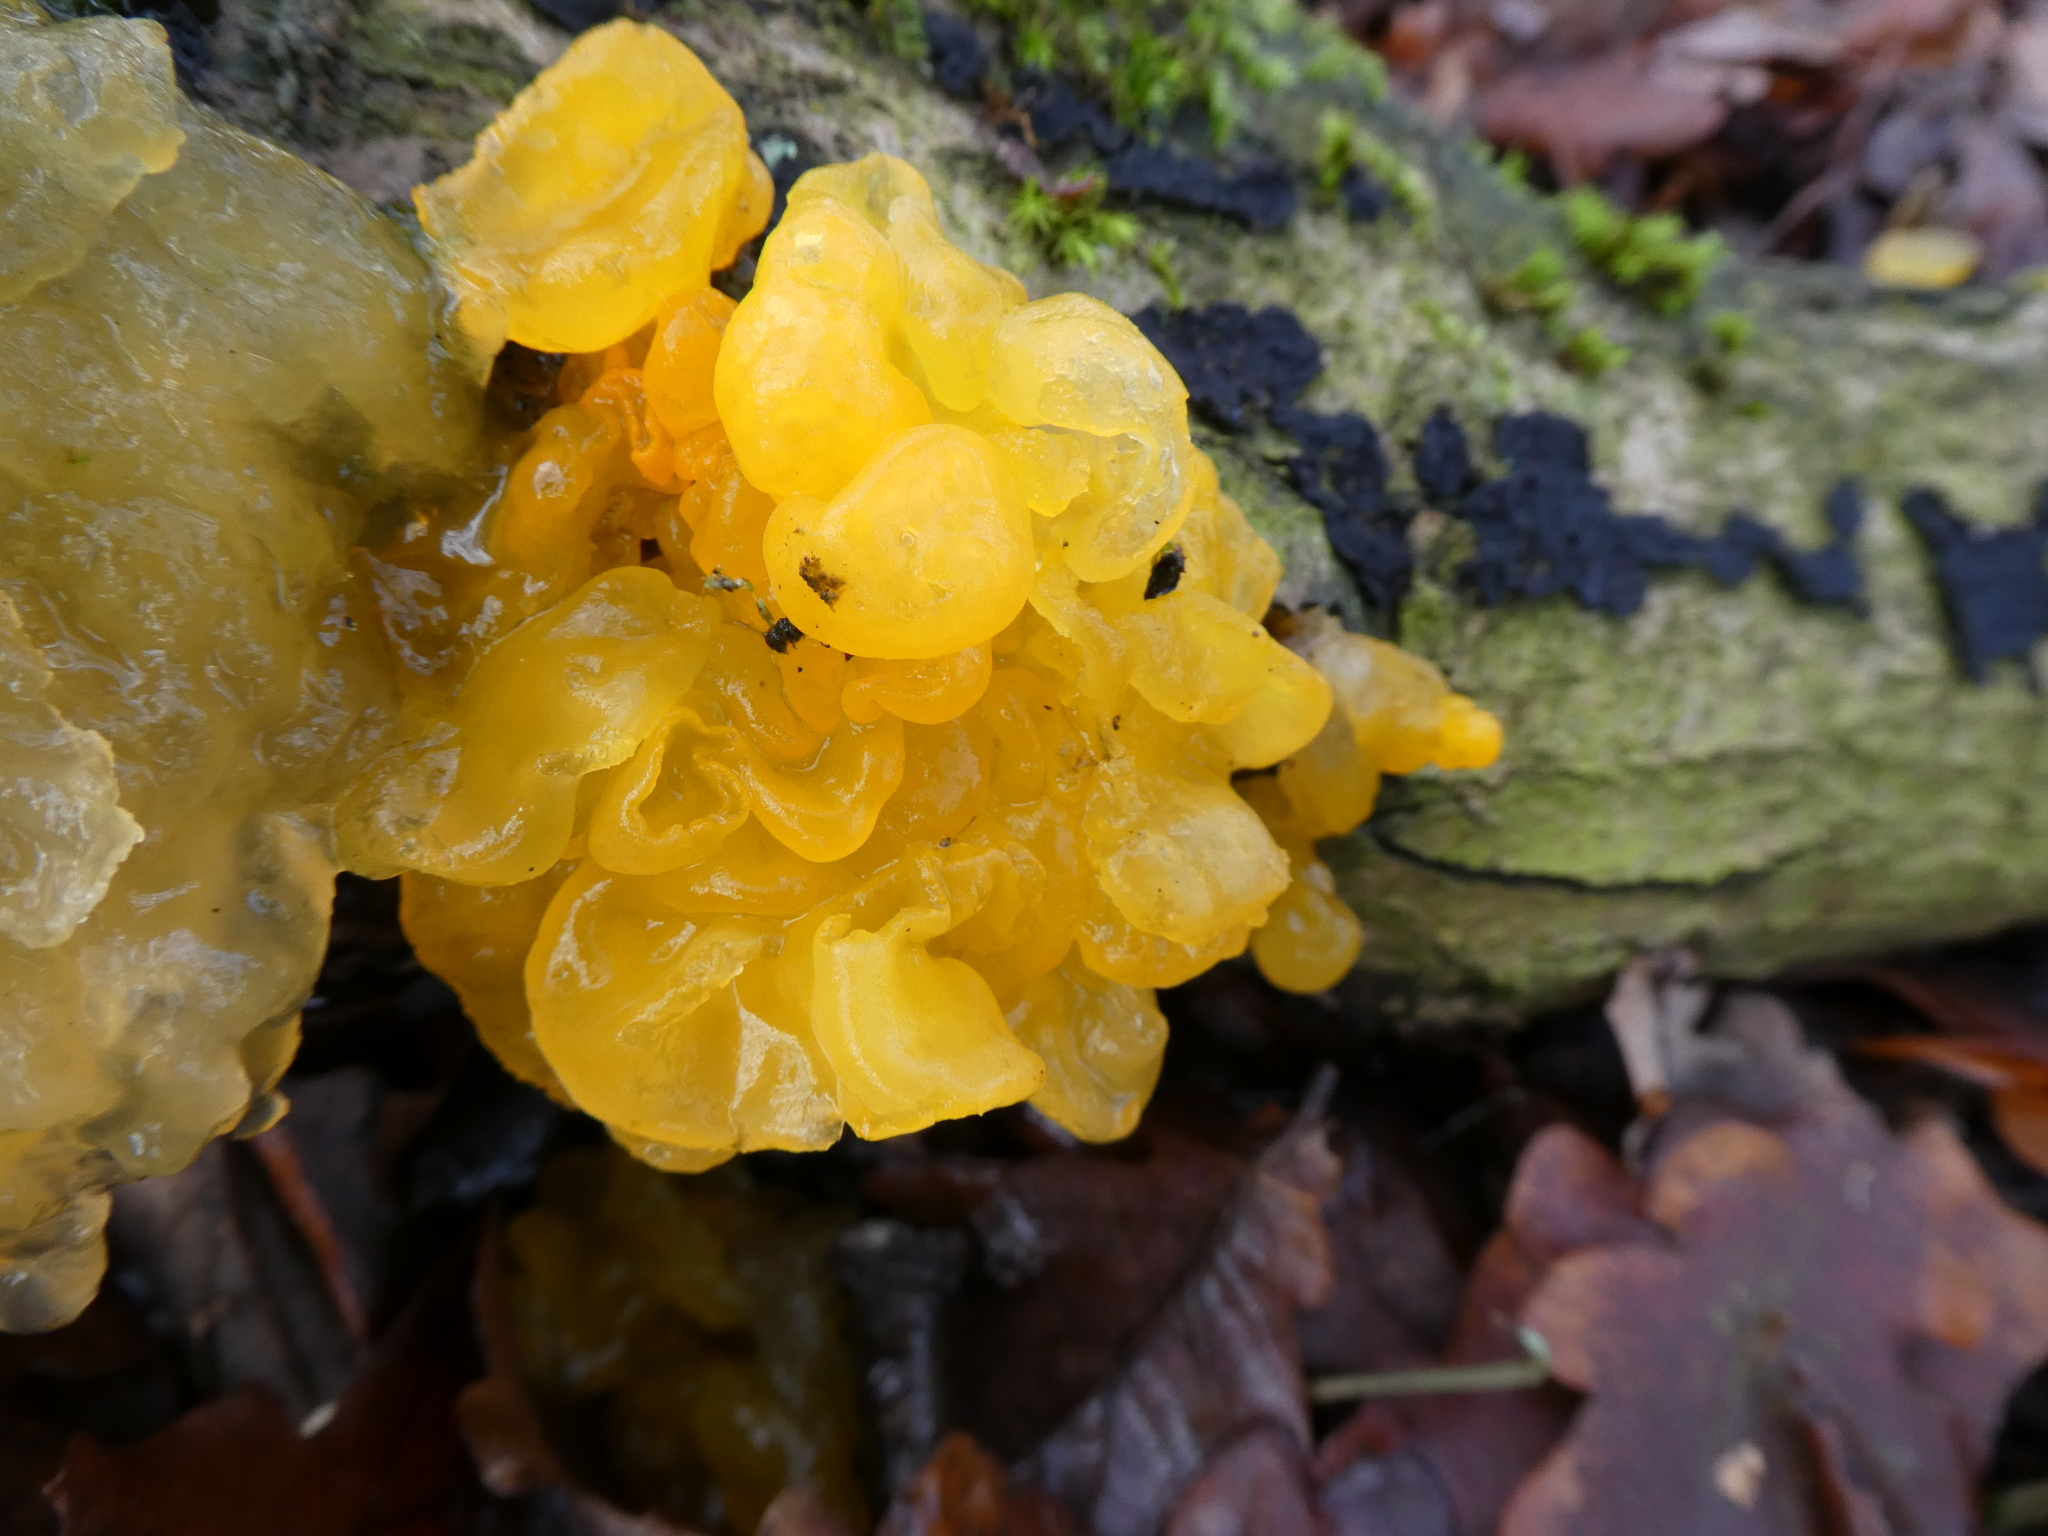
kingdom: Fungi
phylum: Basidiomycota
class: Tremellomycetes
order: Tremellales
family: Tremellaceae
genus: Tremella
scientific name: Tremella mesenterica
